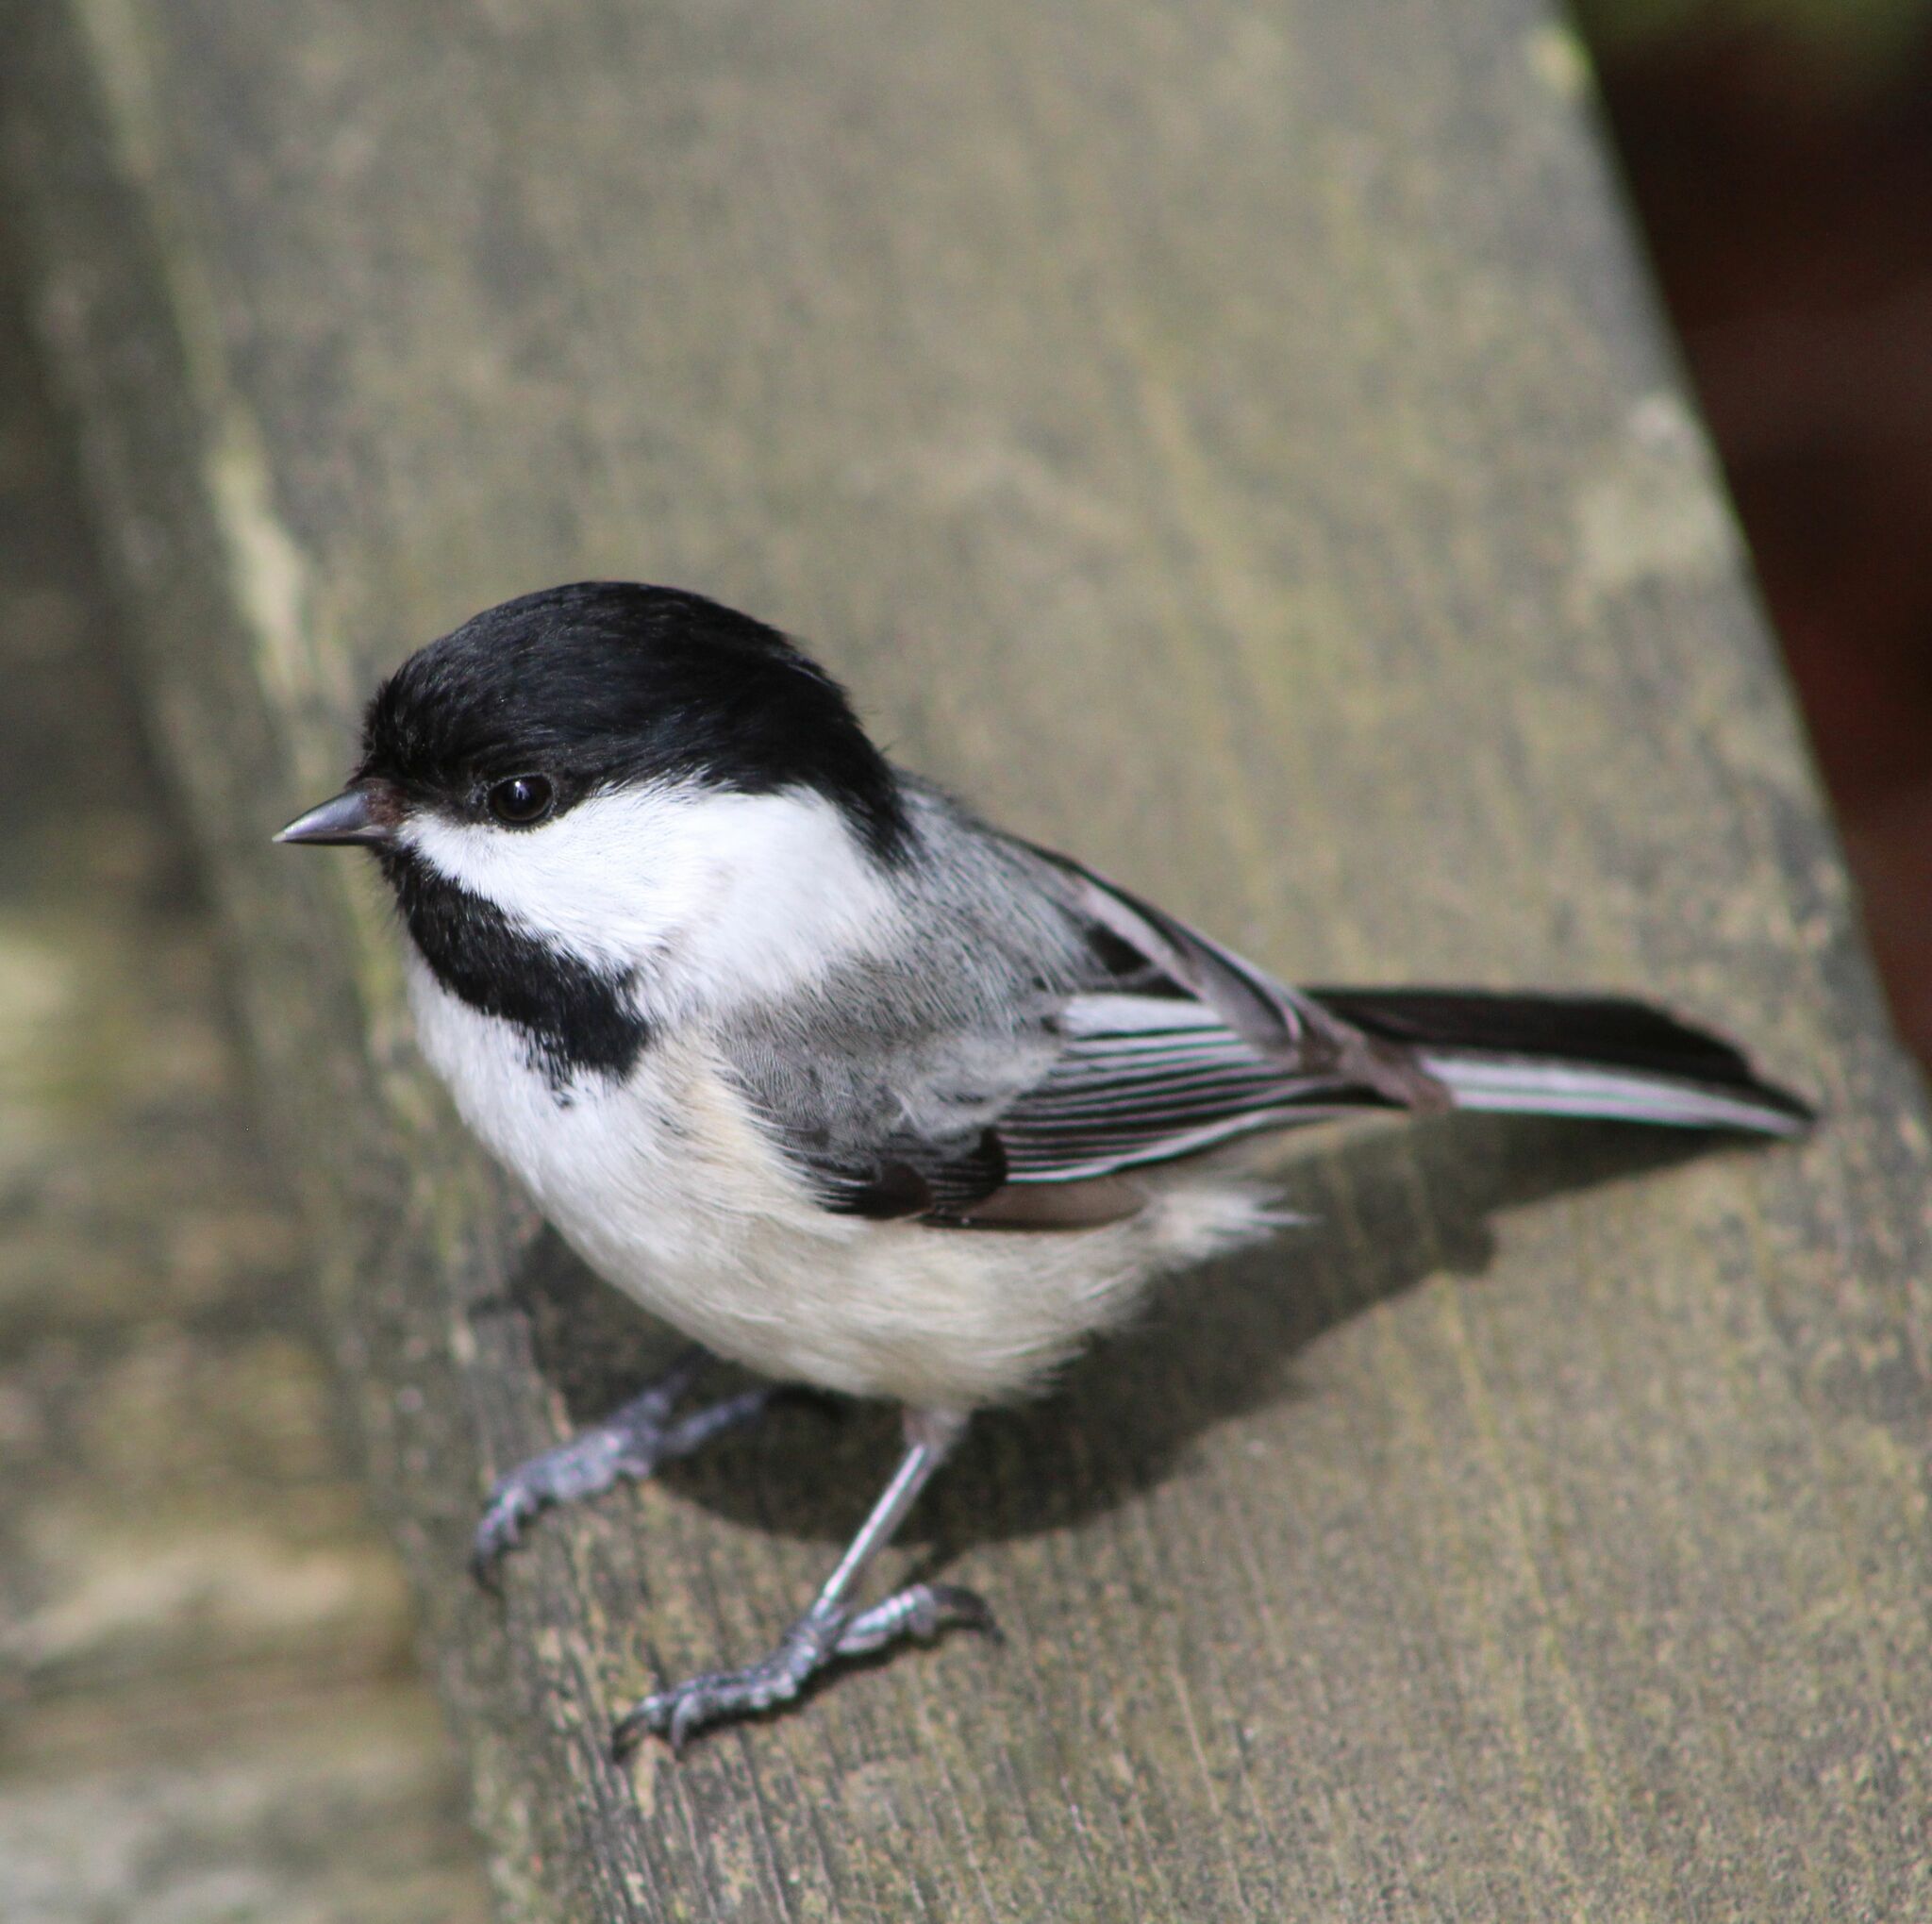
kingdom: Animalia
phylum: Chordata
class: Aves
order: Passeriformes
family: Paridae
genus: Poecile
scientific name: Poecile atricapillus
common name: Black-capped chickadee
